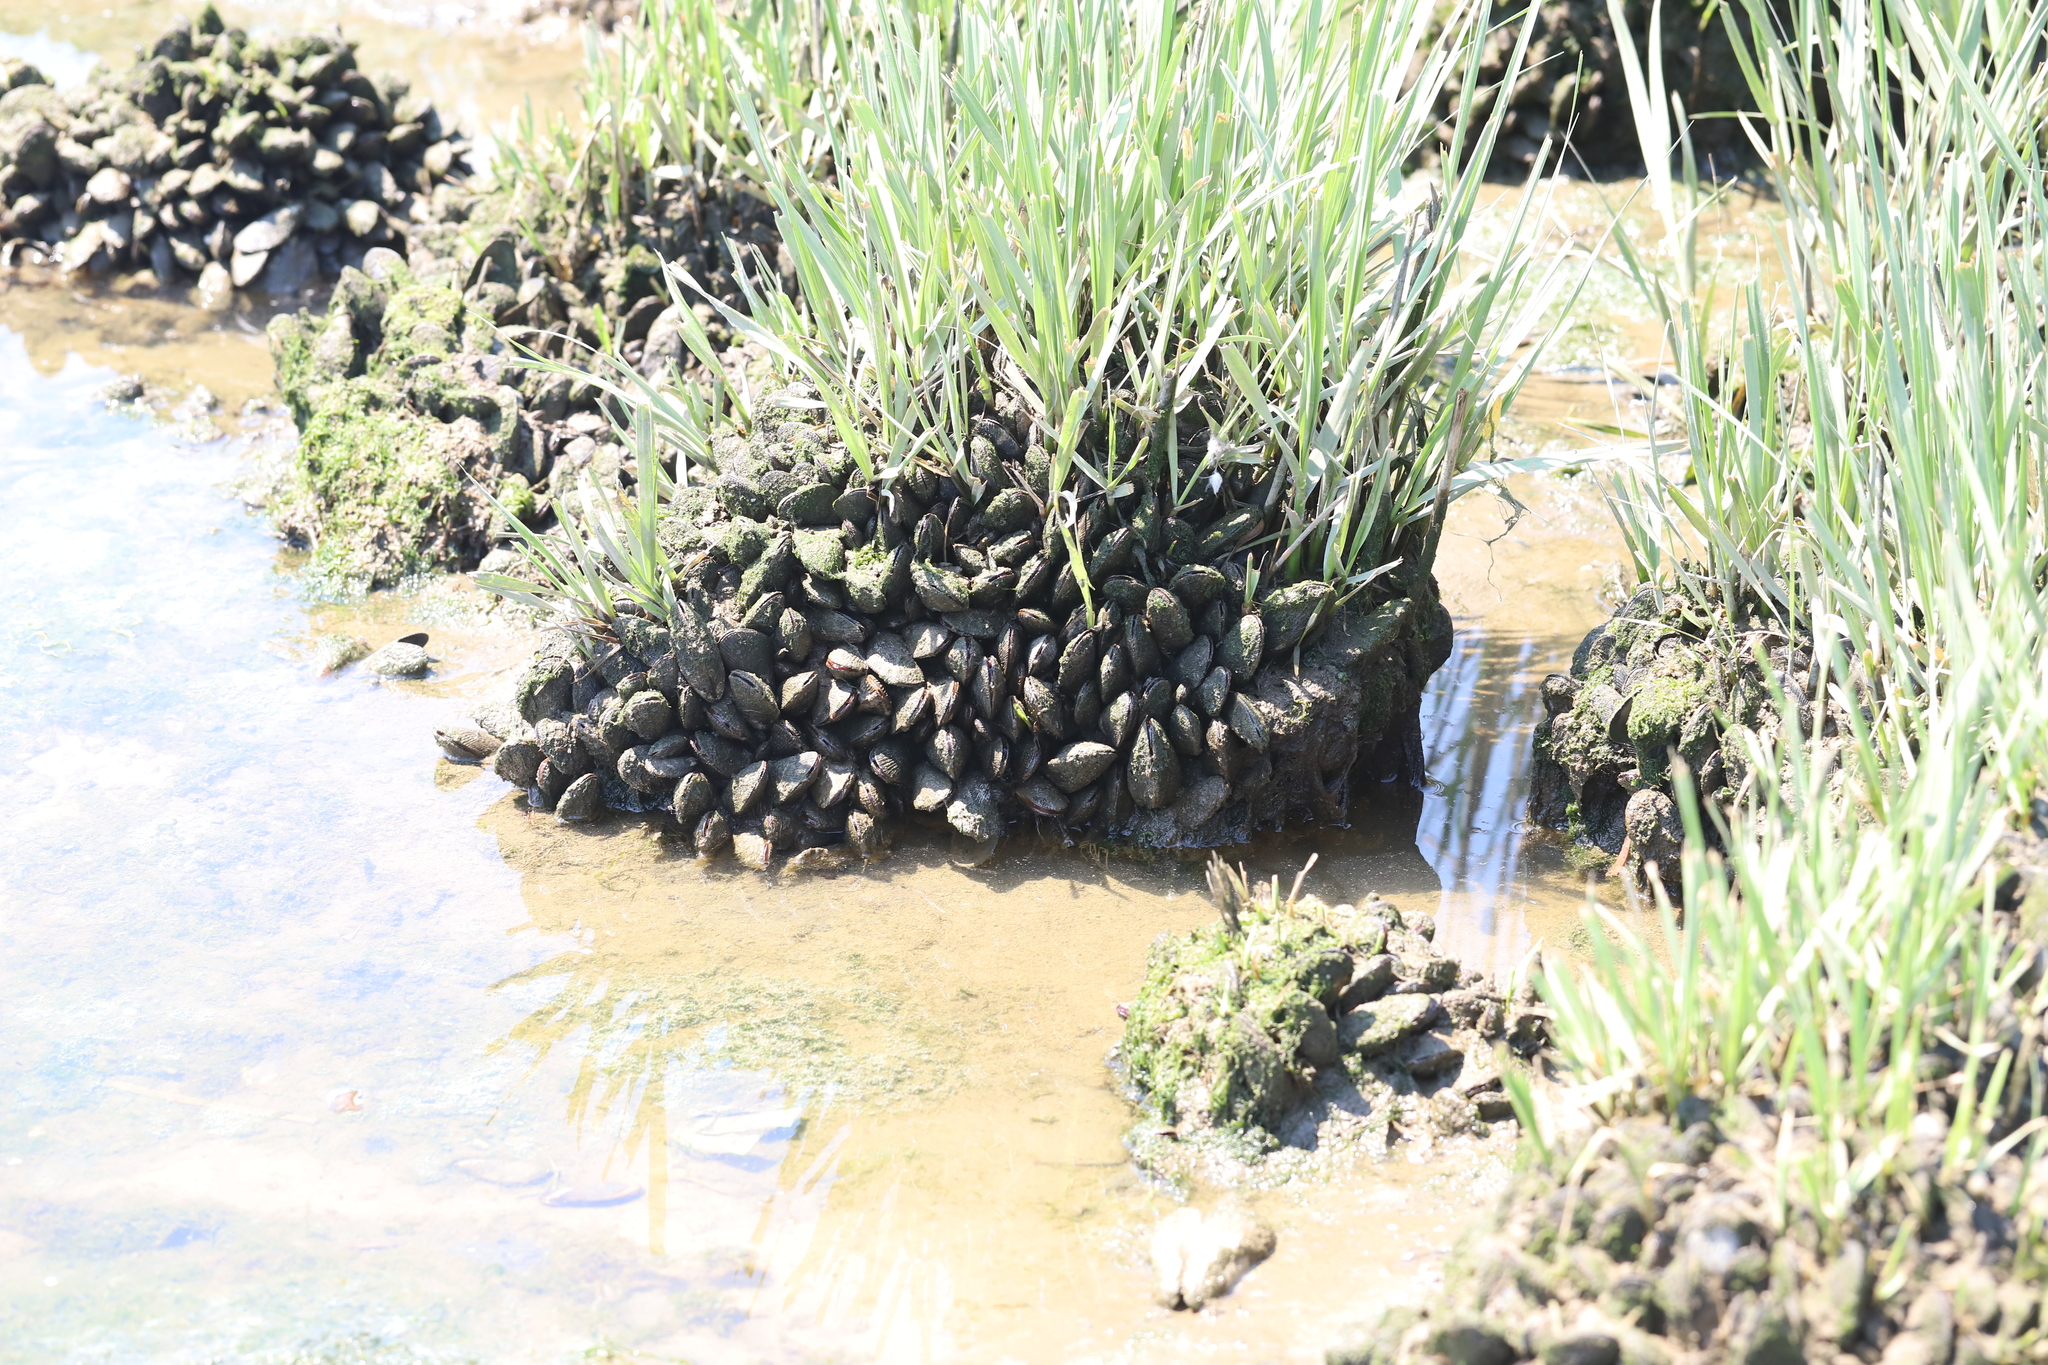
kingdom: Animalia
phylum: Mollusca
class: Bivalvia
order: Mytilida
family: Mytilidae
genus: Geukensia
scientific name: Geukensia demissa
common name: Ribbed mussel
